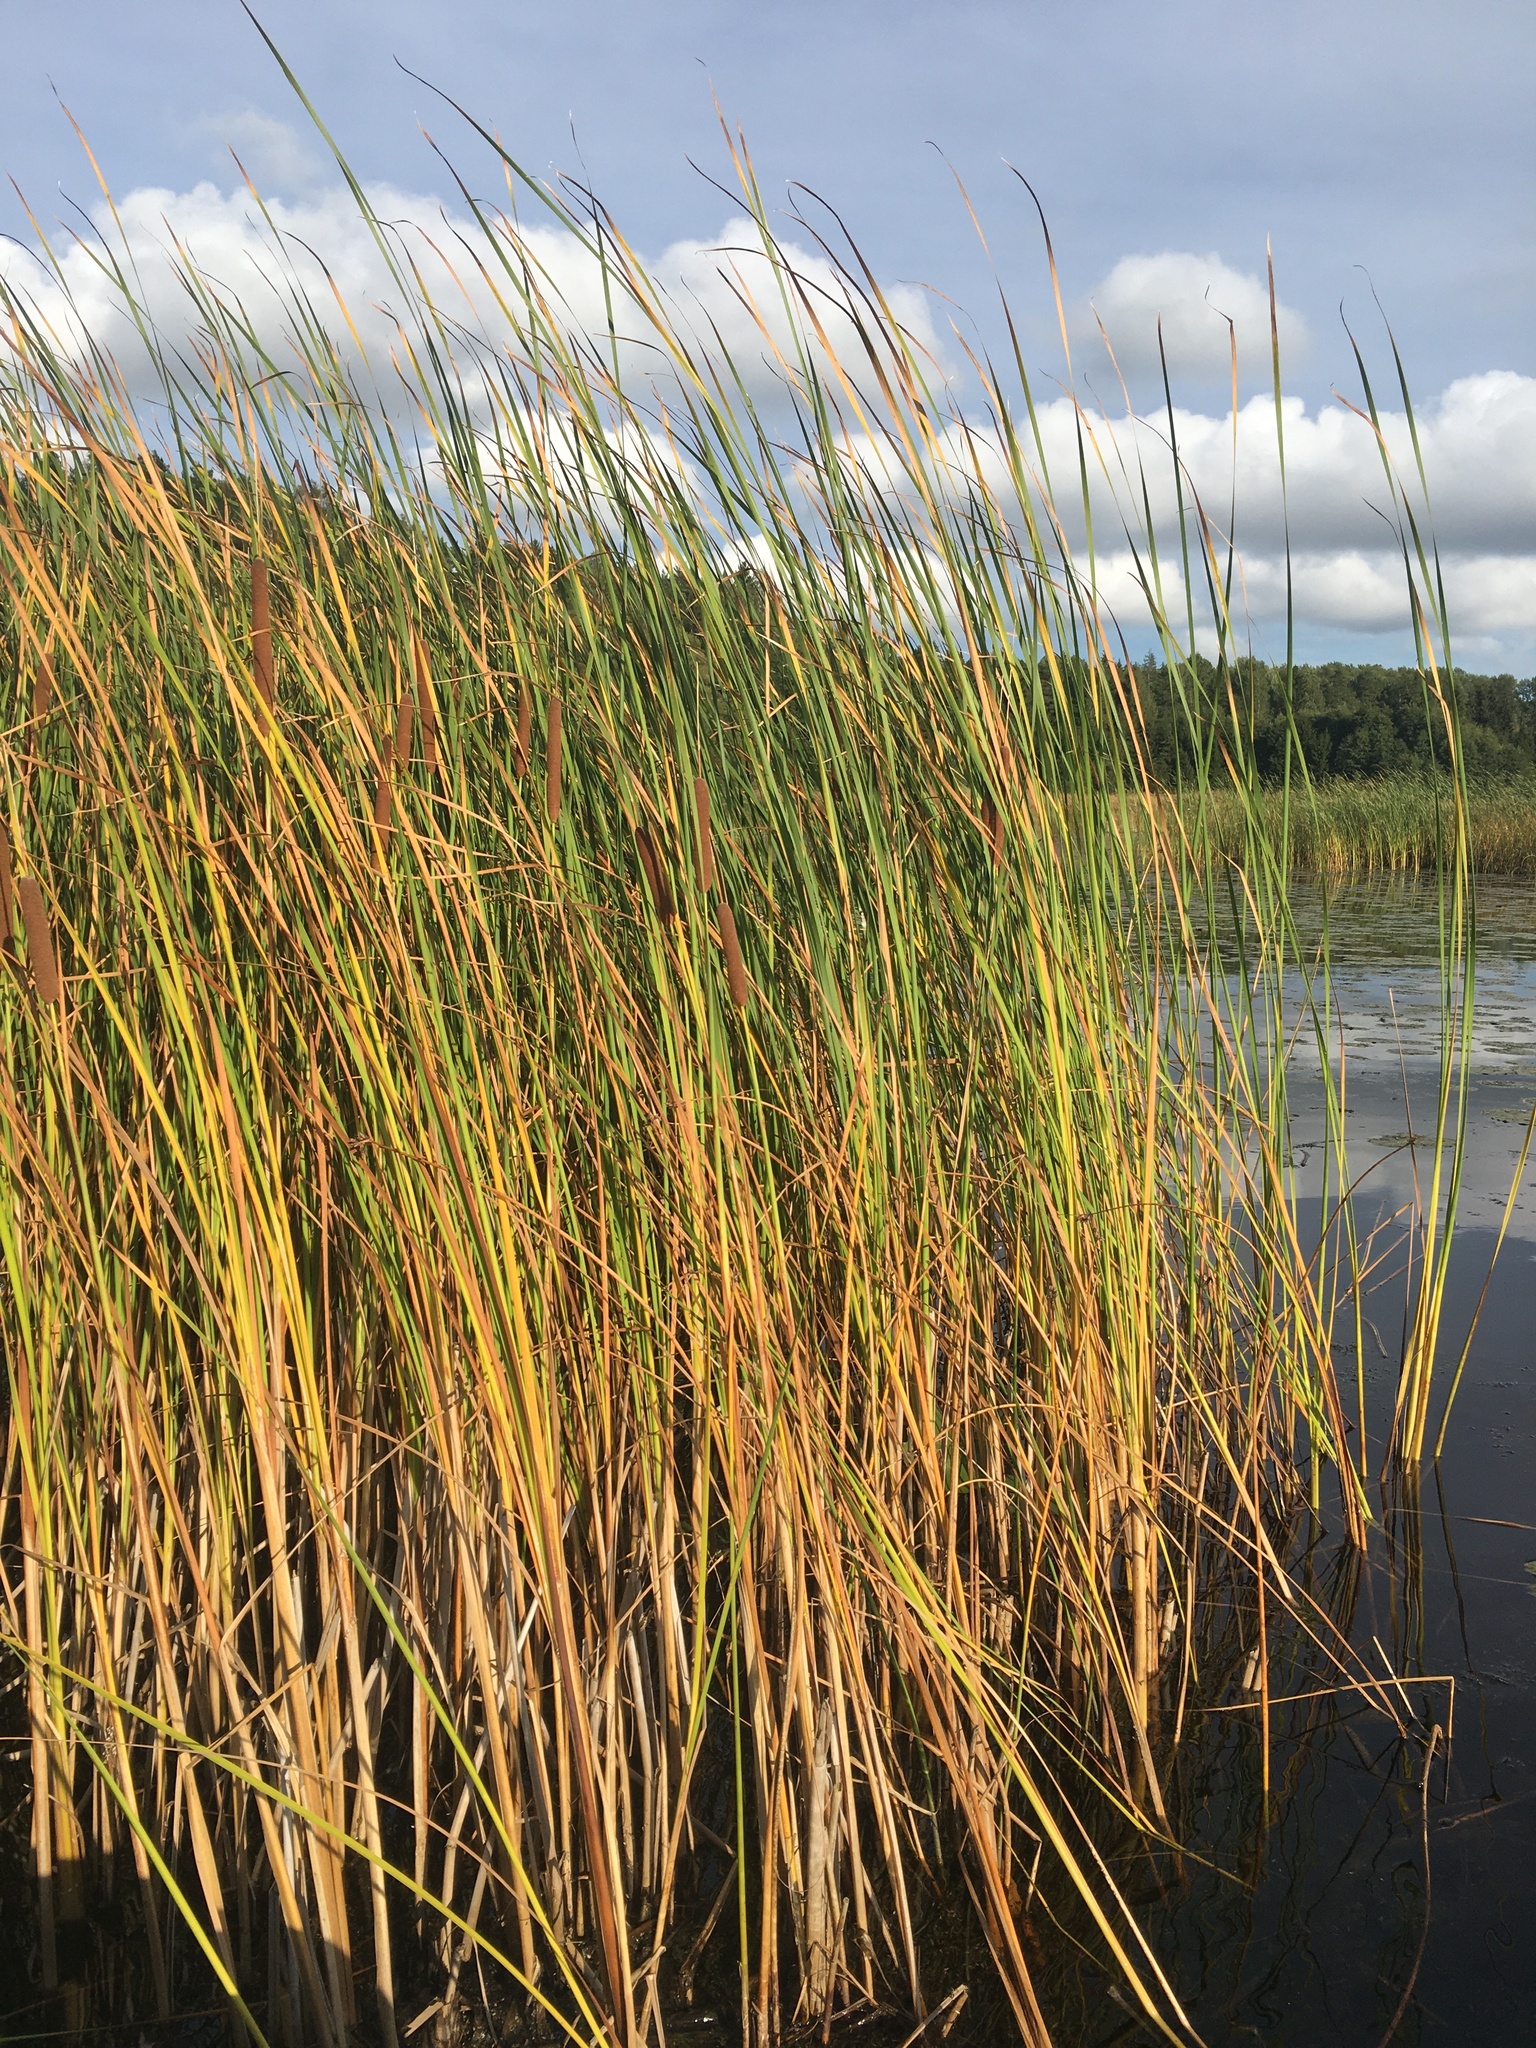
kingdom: Plantae
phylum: Tracheophyta
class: Liliopsida
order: Poales
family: Typhaceae
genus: Typha
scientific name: Typha angustifolia
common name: Lesser bulrush
